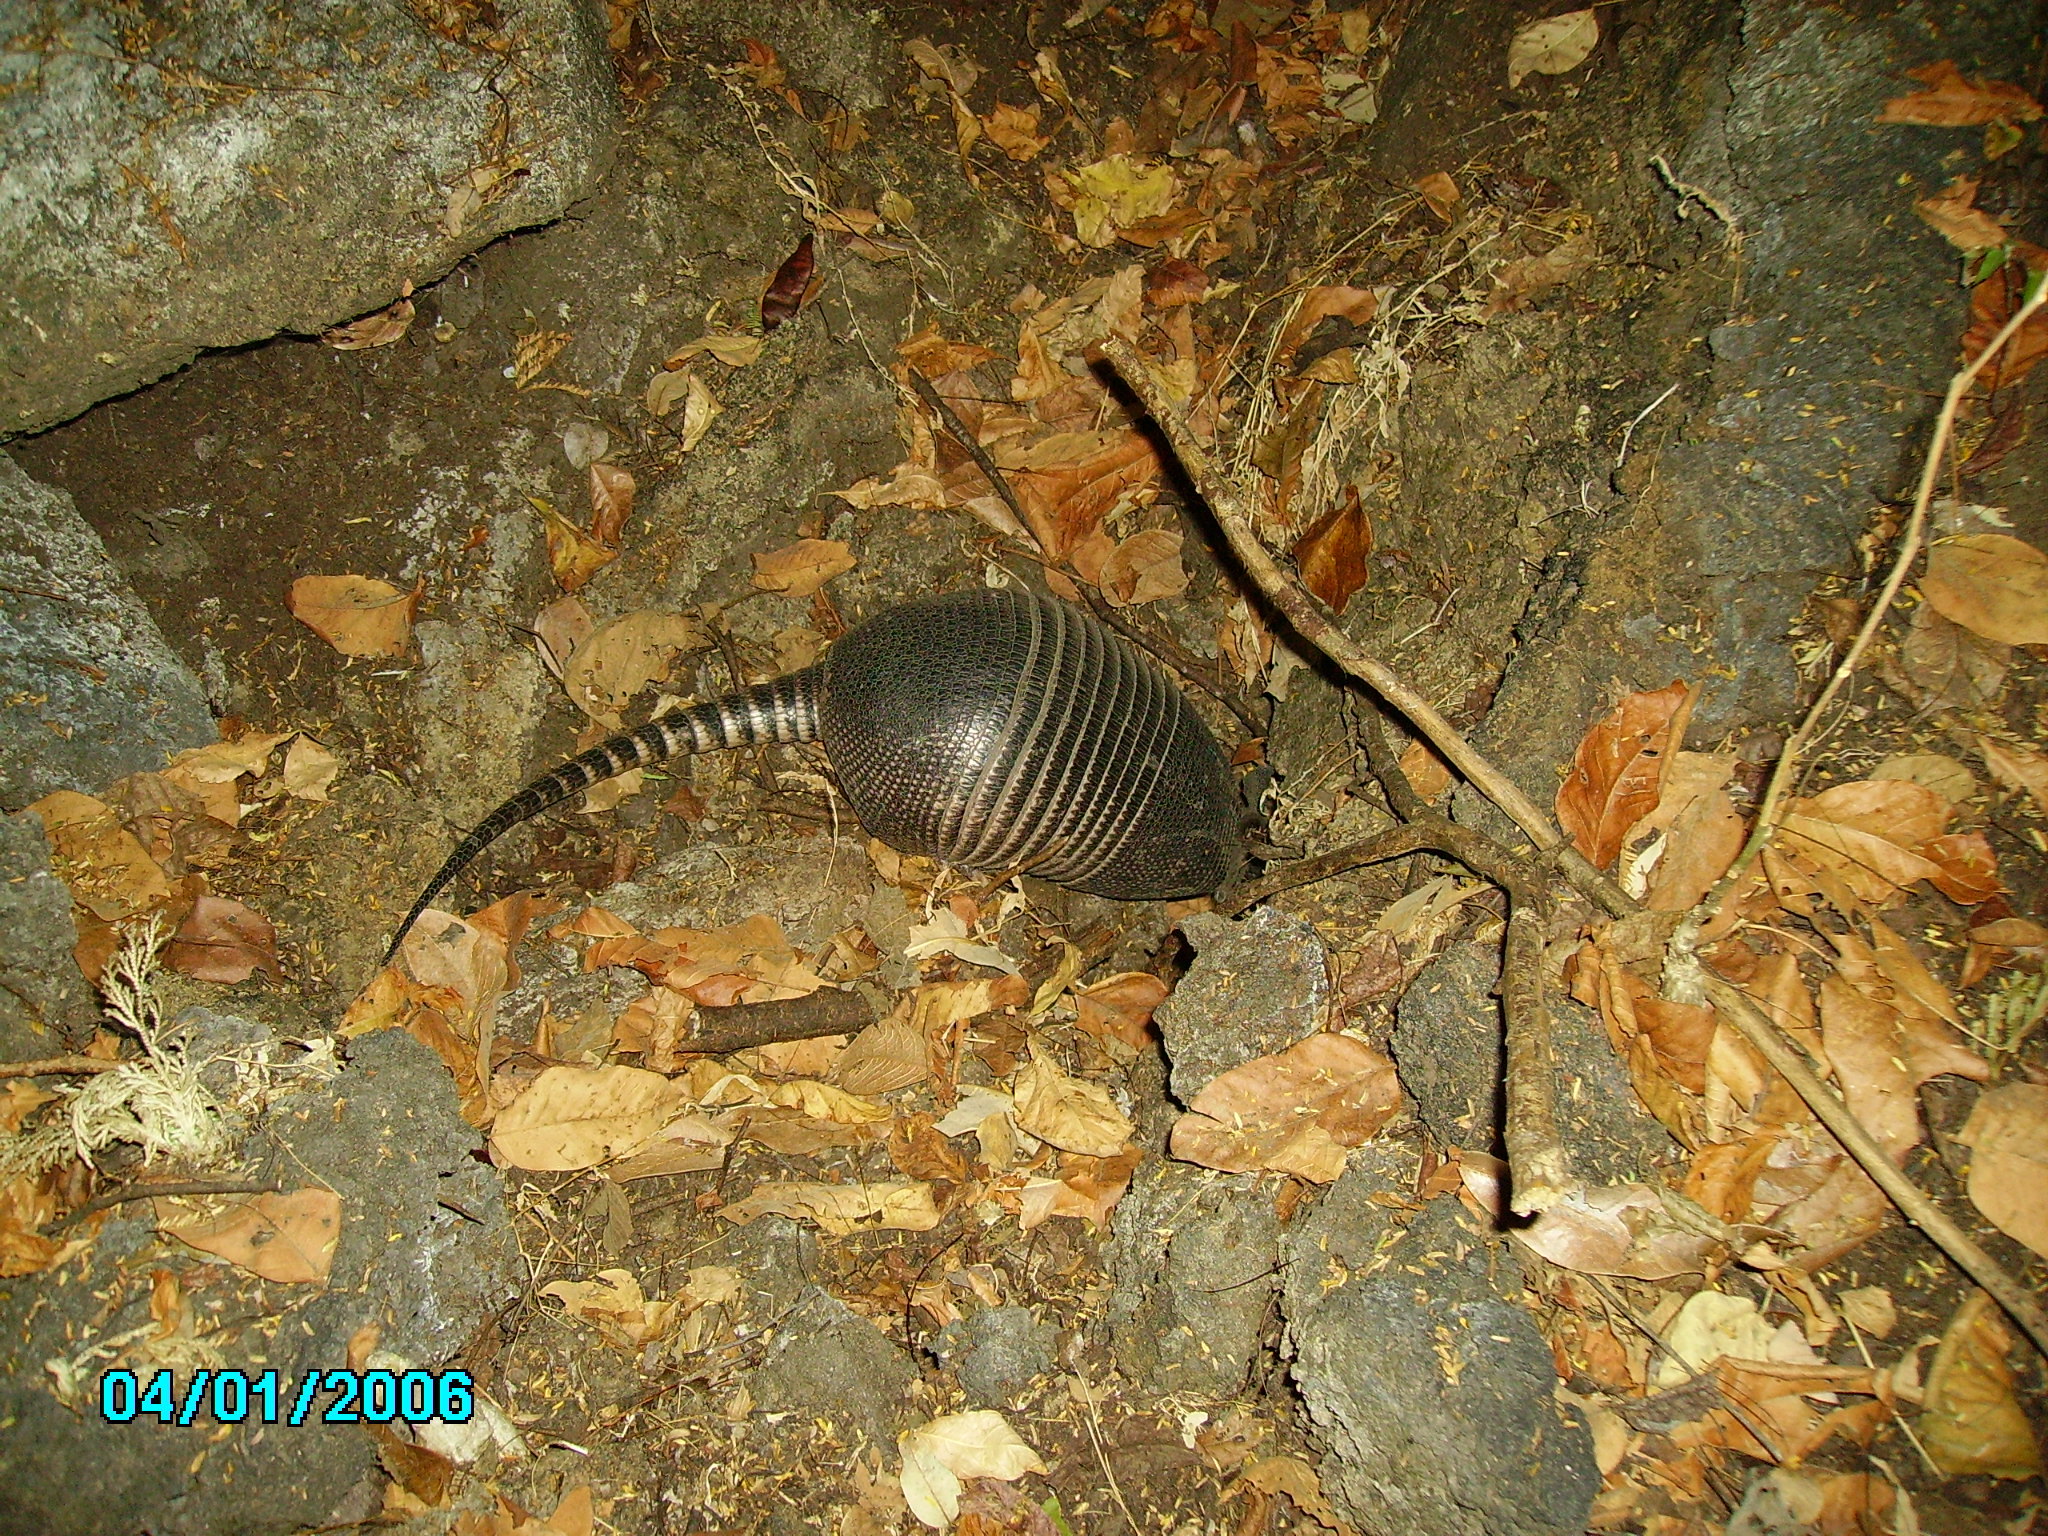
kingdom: Animalia
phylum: Chordata
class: Mammalia
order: Cingulata
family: Dasypodidae
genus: Dasypus
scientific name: Dasypus novemcinctus
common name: Nine-banded armadillo
